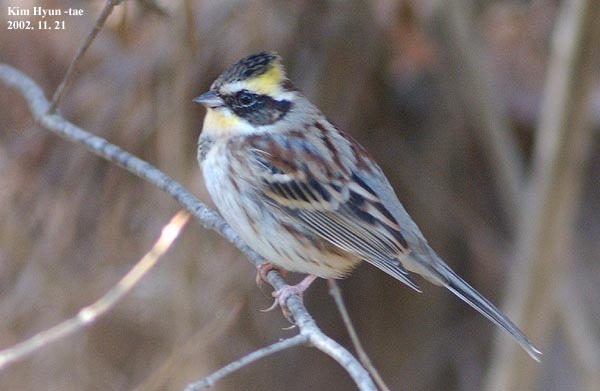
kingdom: Animalia
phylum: Chordata
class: Aves
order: Passeriformes
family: Emberizidae
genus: Emberiza
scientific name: Emberiza elegans
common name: Yellow-throated bunting
